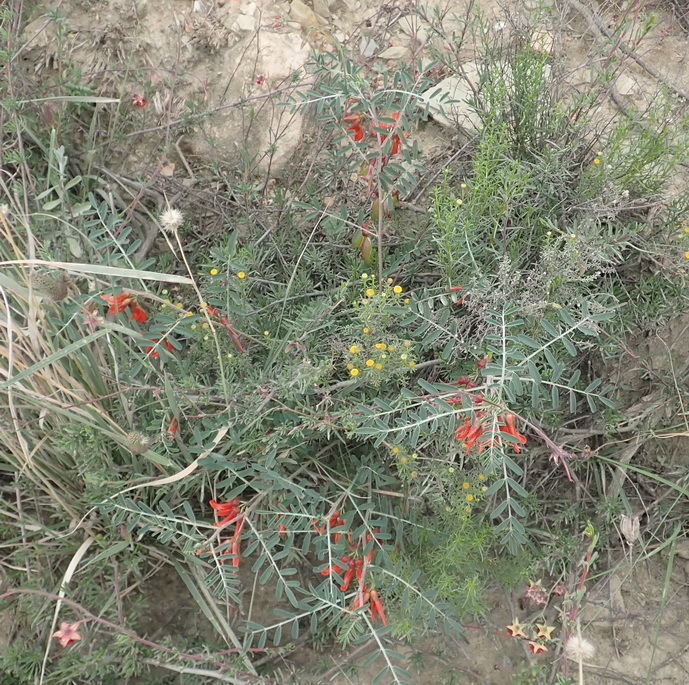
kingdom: Plantae
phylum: Tracheophyta
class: Magnoliopsida
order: Fabales
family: Fabaceae
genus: Lessertia
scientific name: Lessertia frutescens
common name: Balloon-pea
